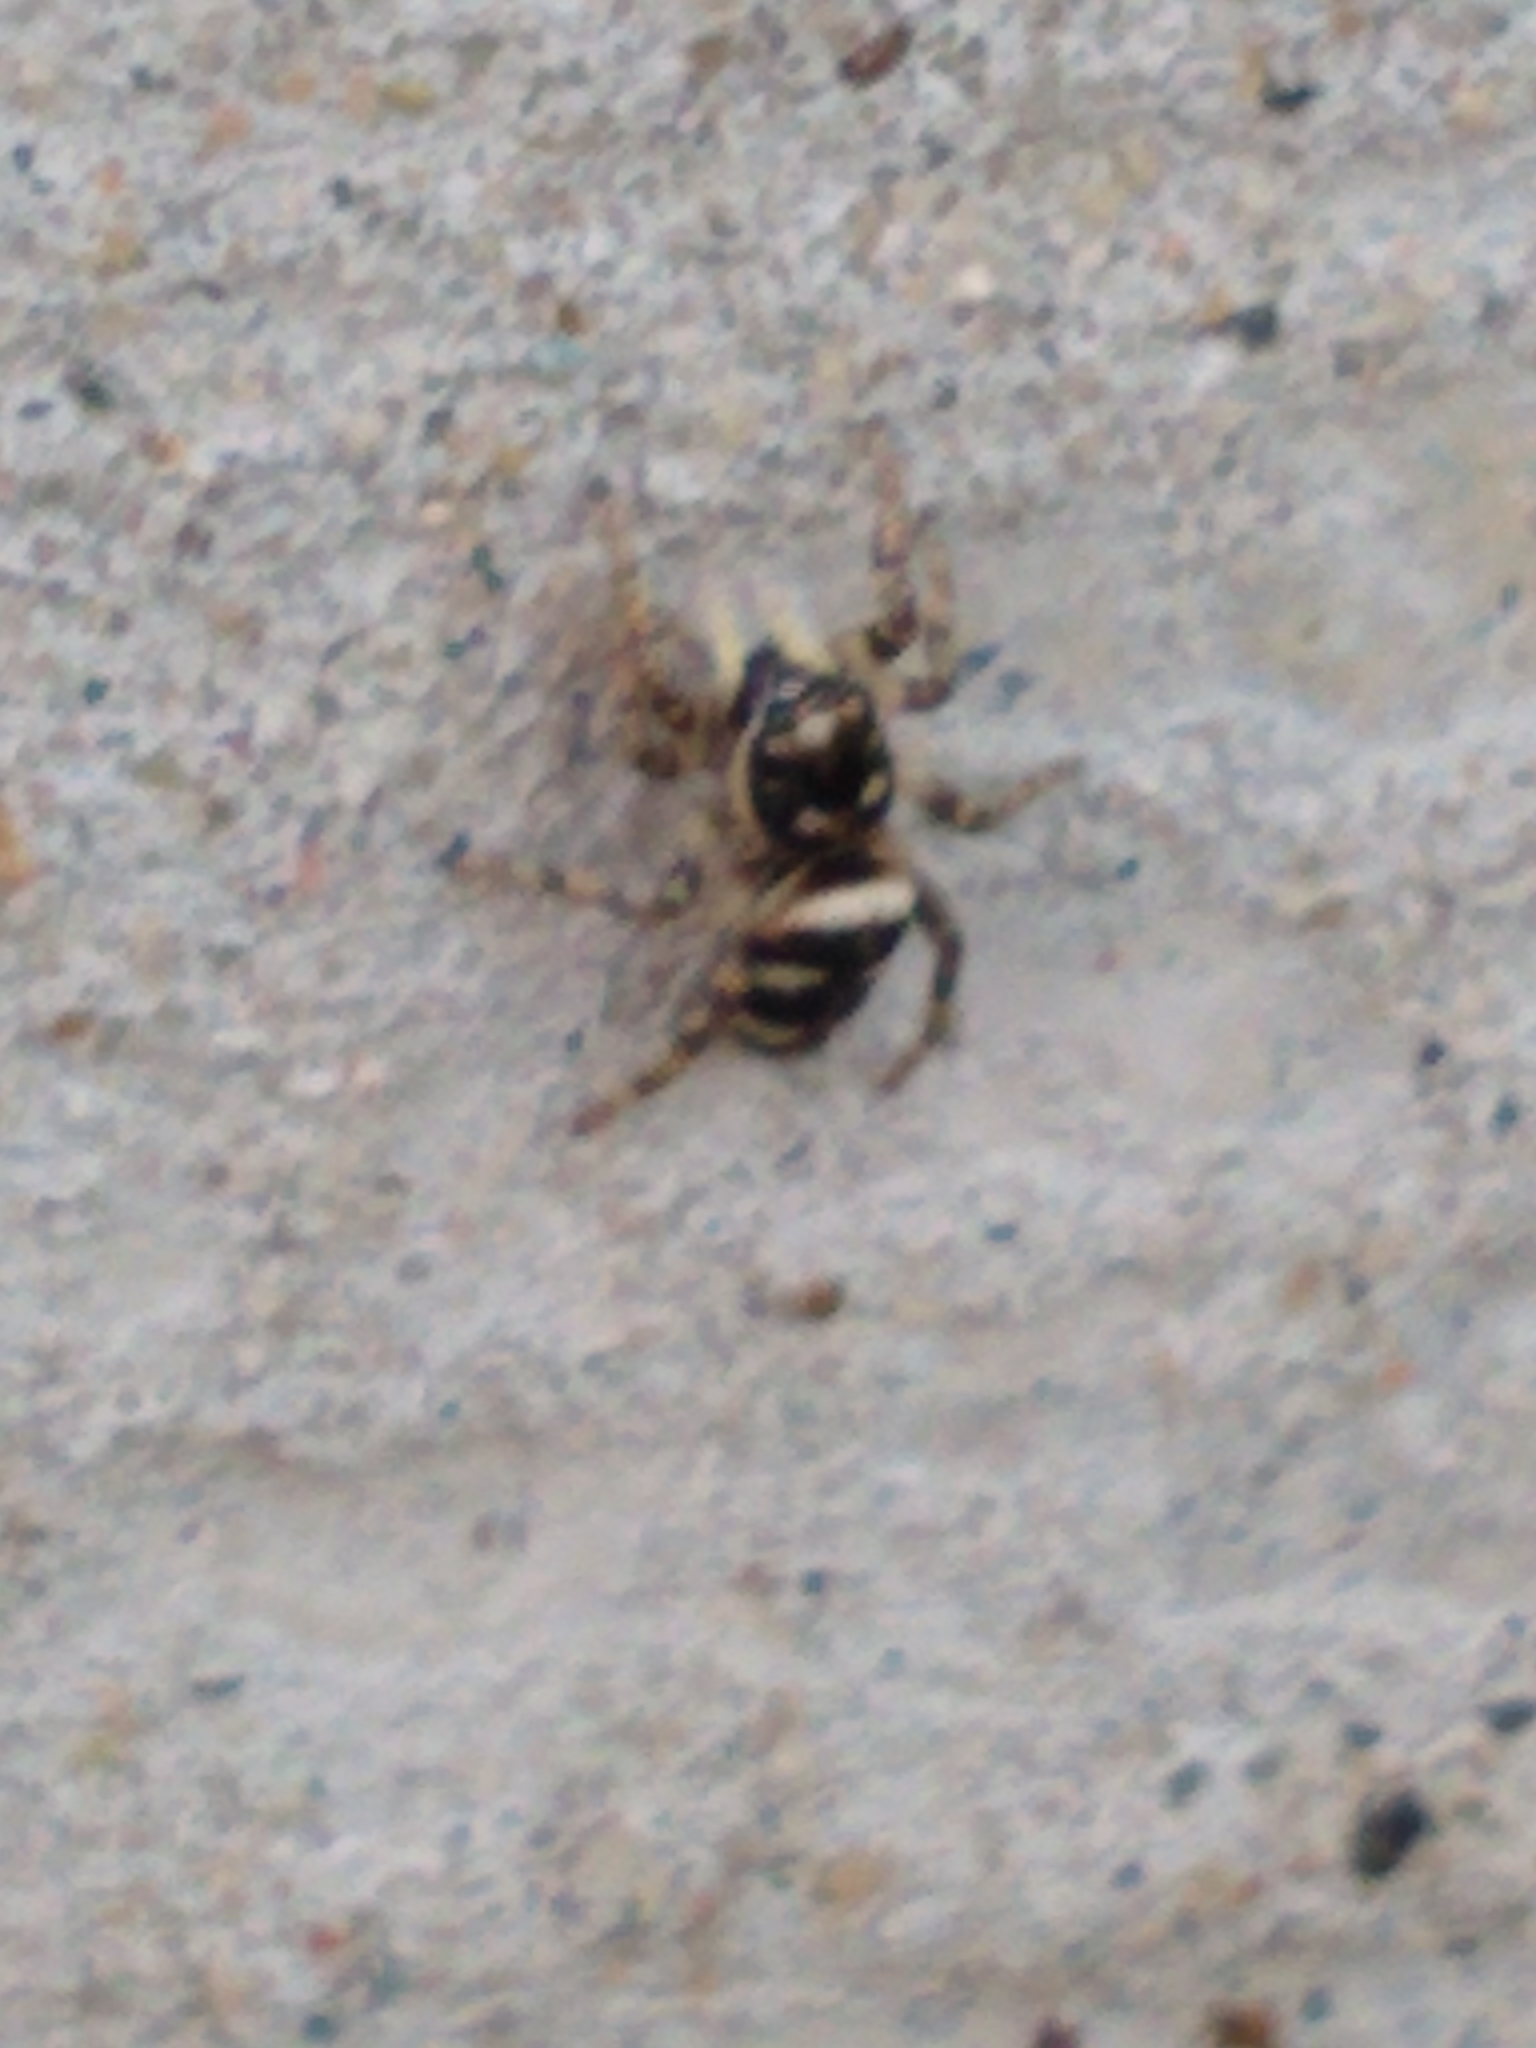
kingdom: Animalia
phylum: Arthropoda
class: Arachnida
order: Araneae
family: Salticidae
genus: Salticus
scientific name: Salticus scenicus
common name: Zebra jumper
